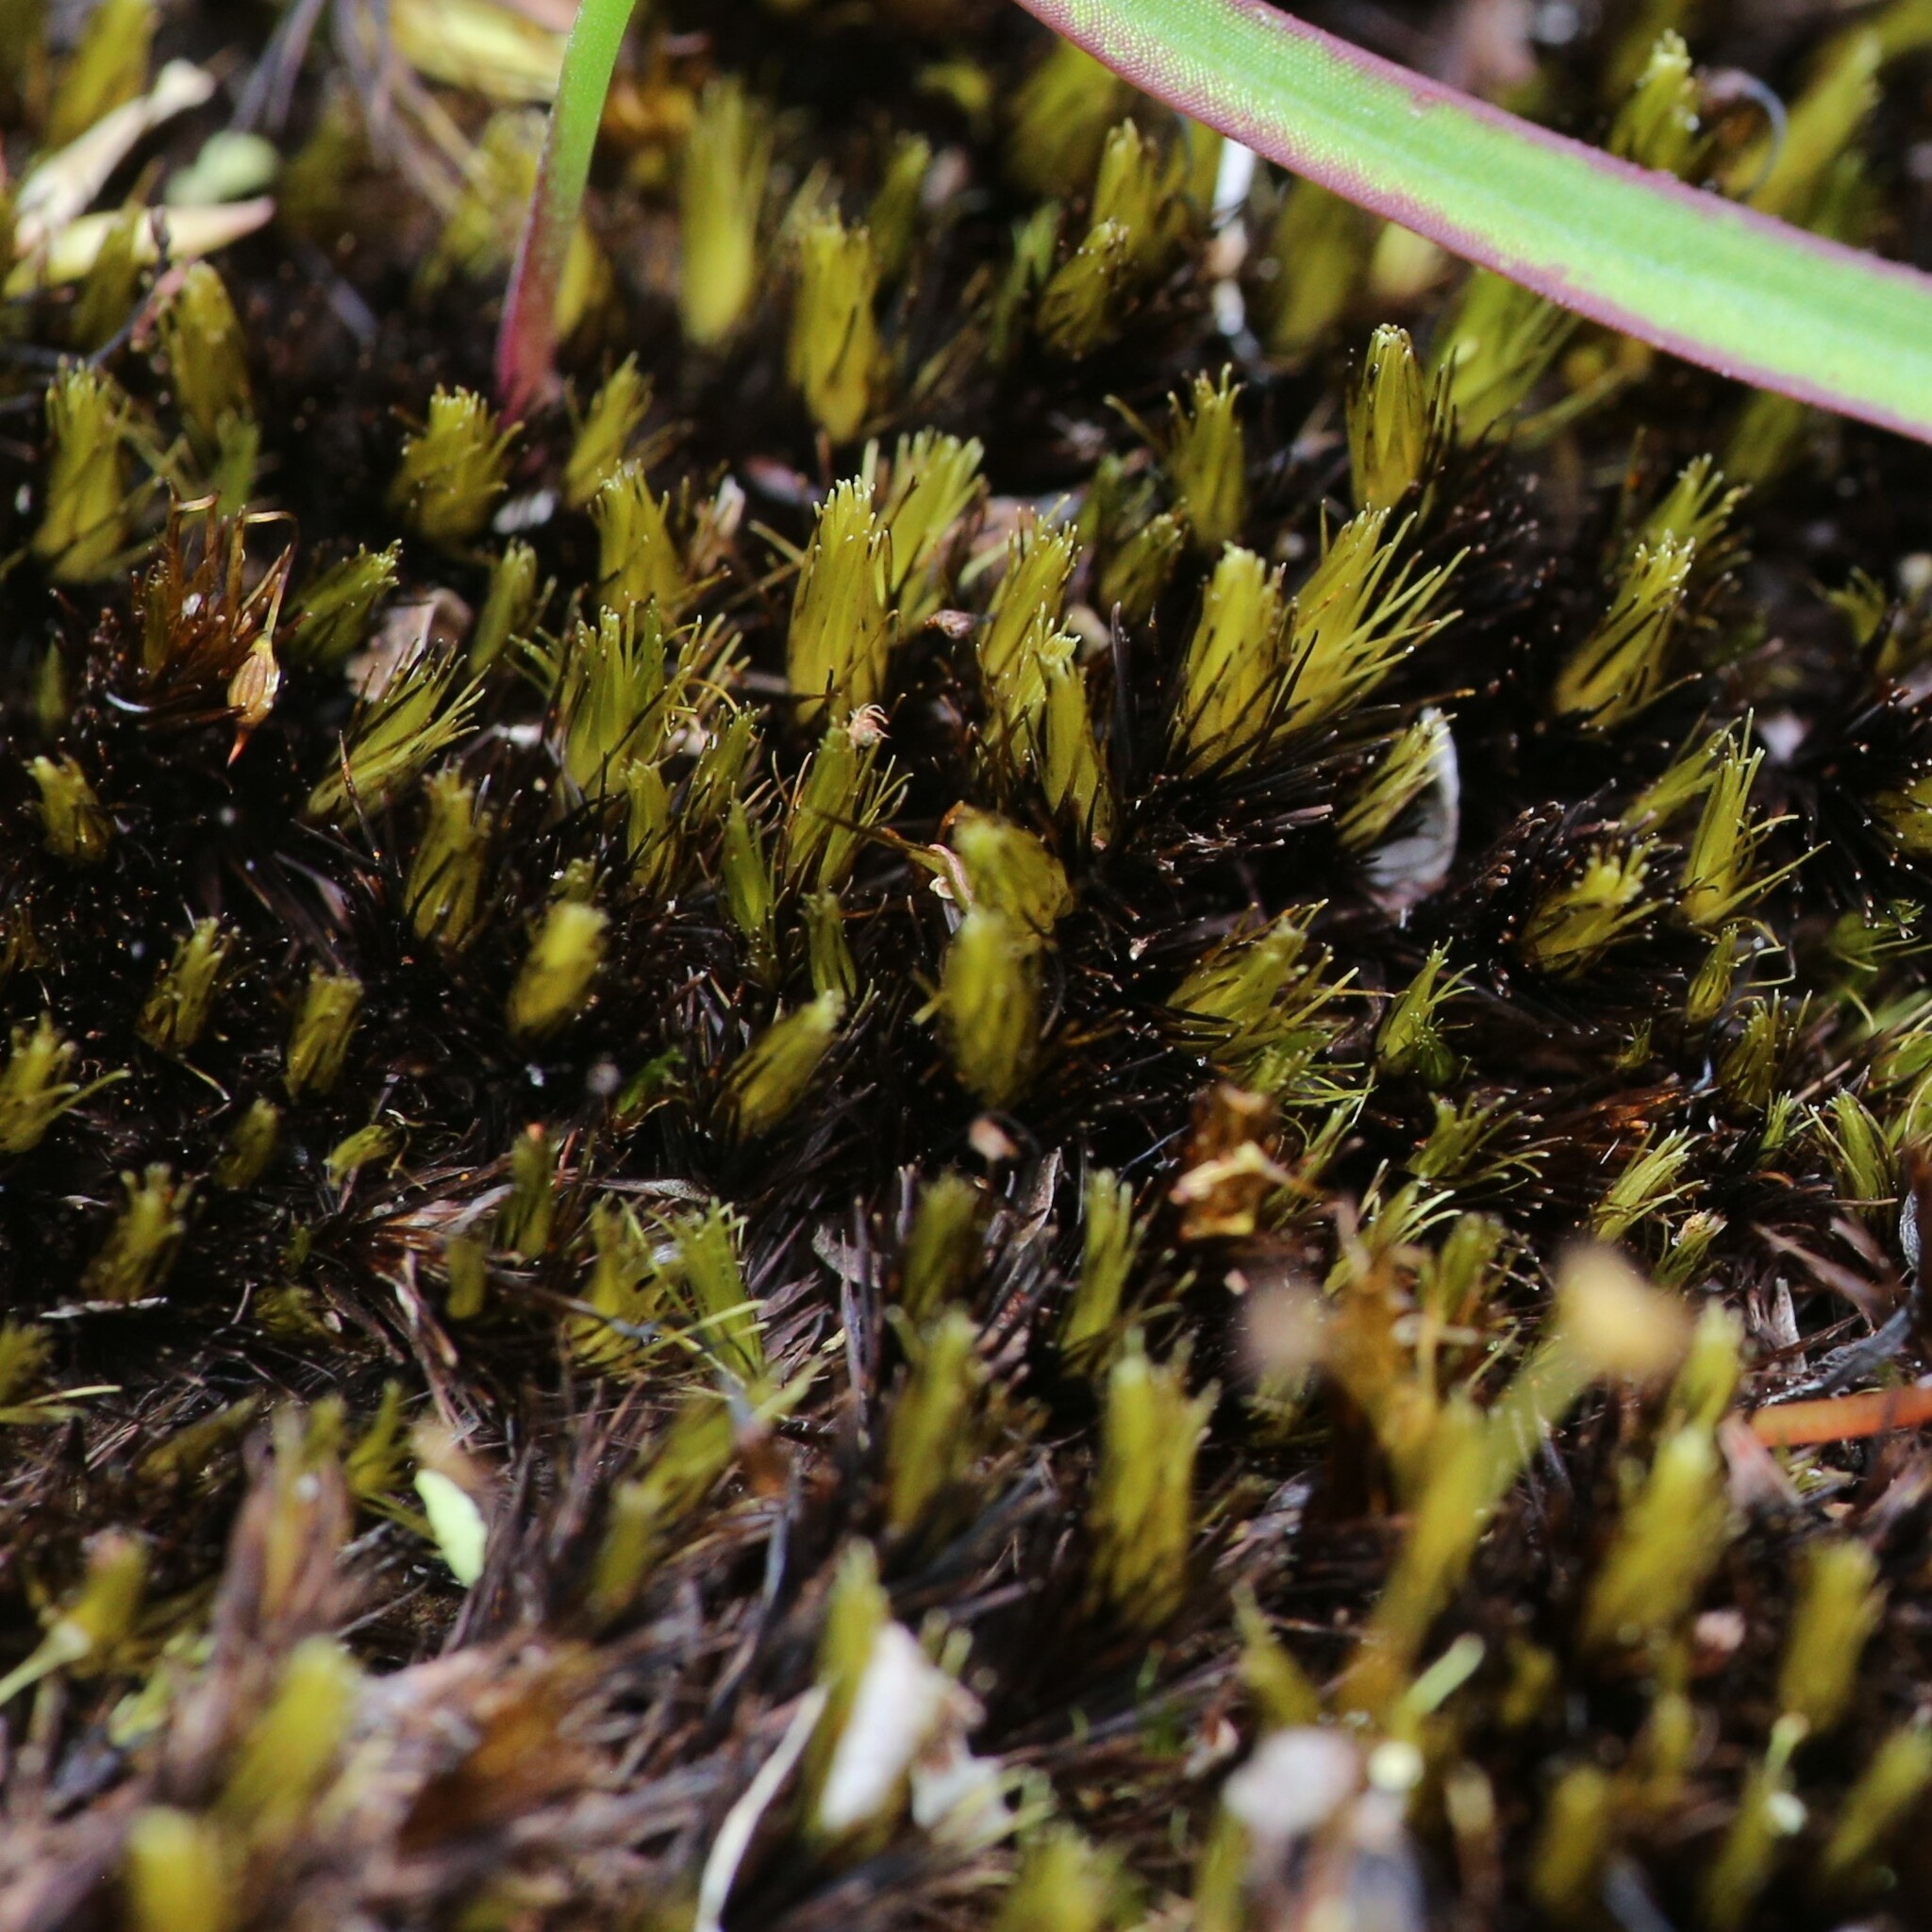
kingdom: Plantae
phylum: Bryophyta
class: Bryopsida
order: Dicranales
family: Leucobryaceae
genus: Campylopus
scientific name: Campylopus bicolor
